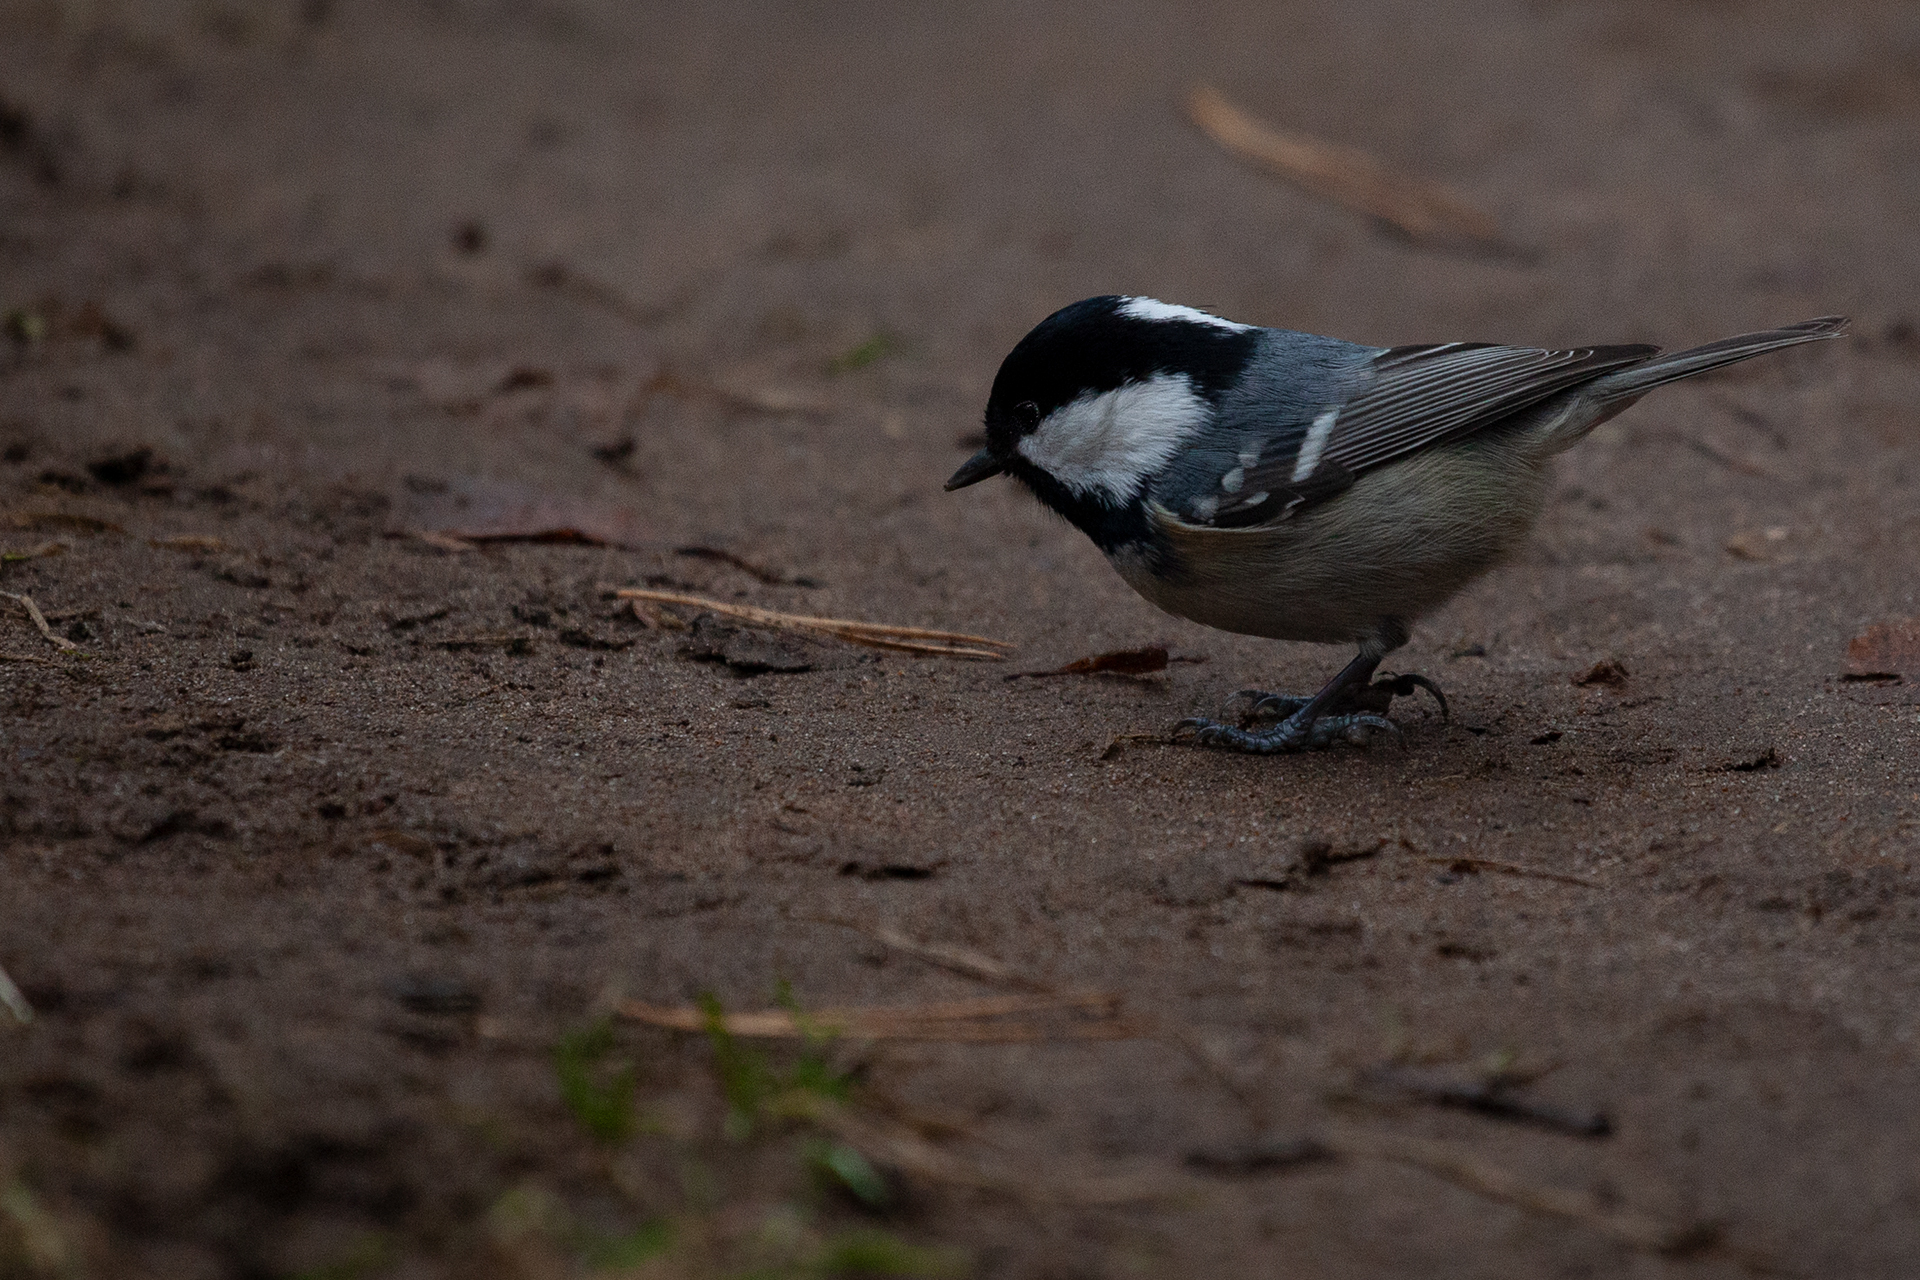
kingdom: Animalia
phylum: Chordata
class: Aves
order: Passeriformes
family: Paridae
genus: Periparus
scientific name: Periparus ater
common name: Coal tit
